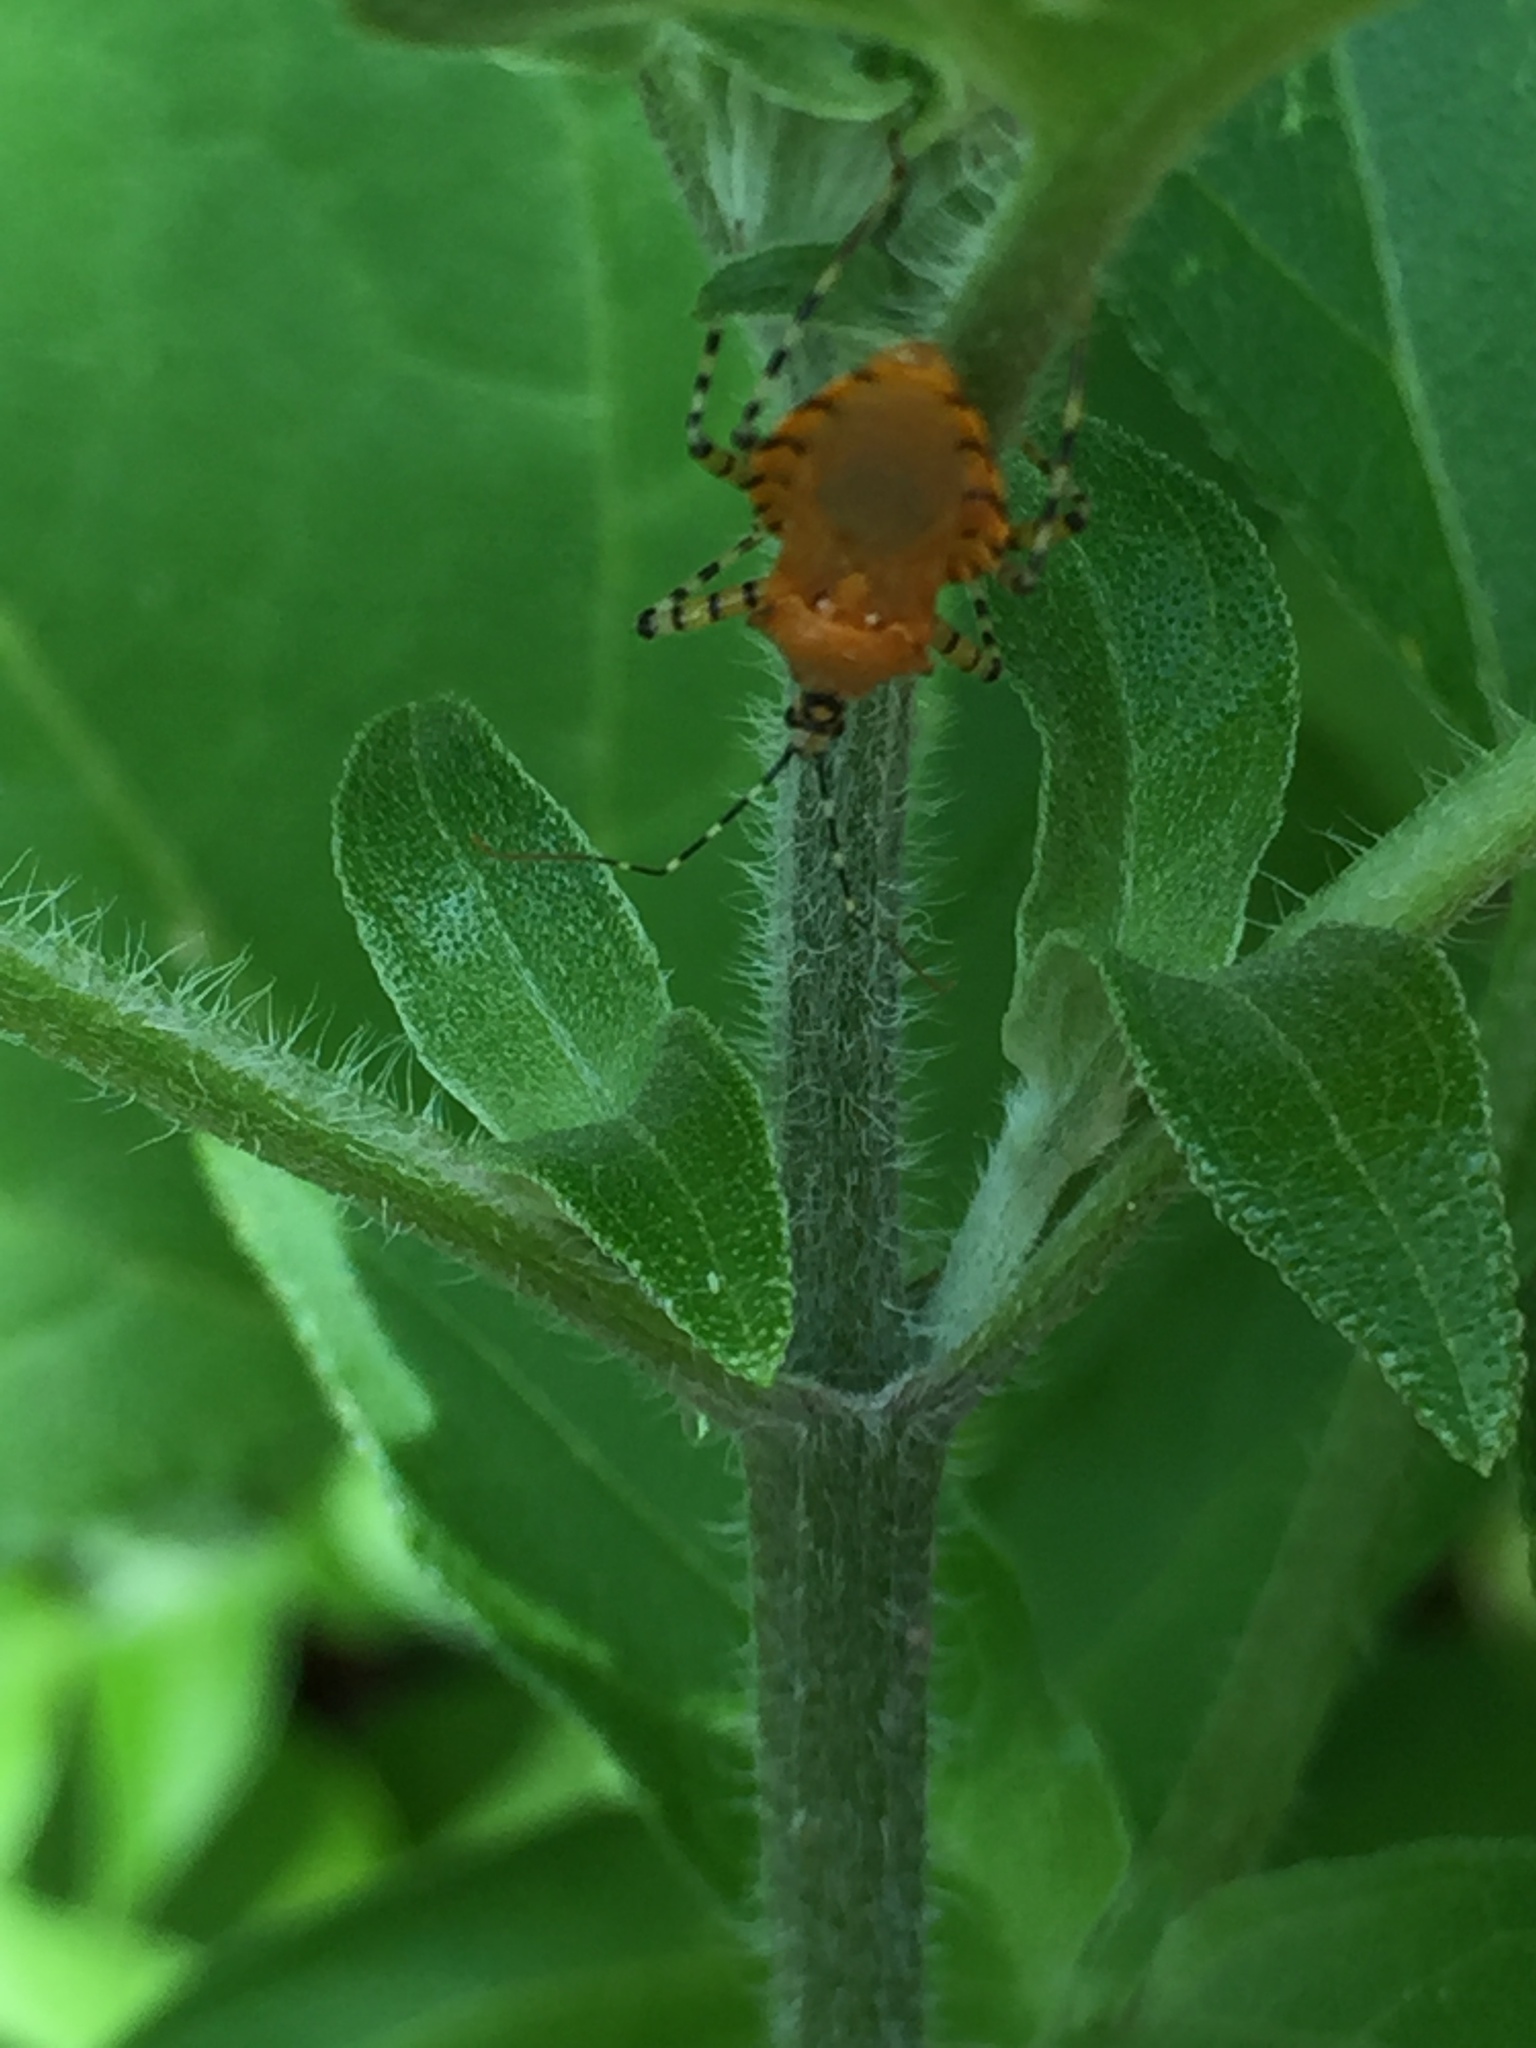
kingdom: Animalia
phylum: Arthropoda
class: Insecta
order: Hemiptera
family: Reduviidae
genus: Pselliopus
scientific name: Pselliopus barberi
